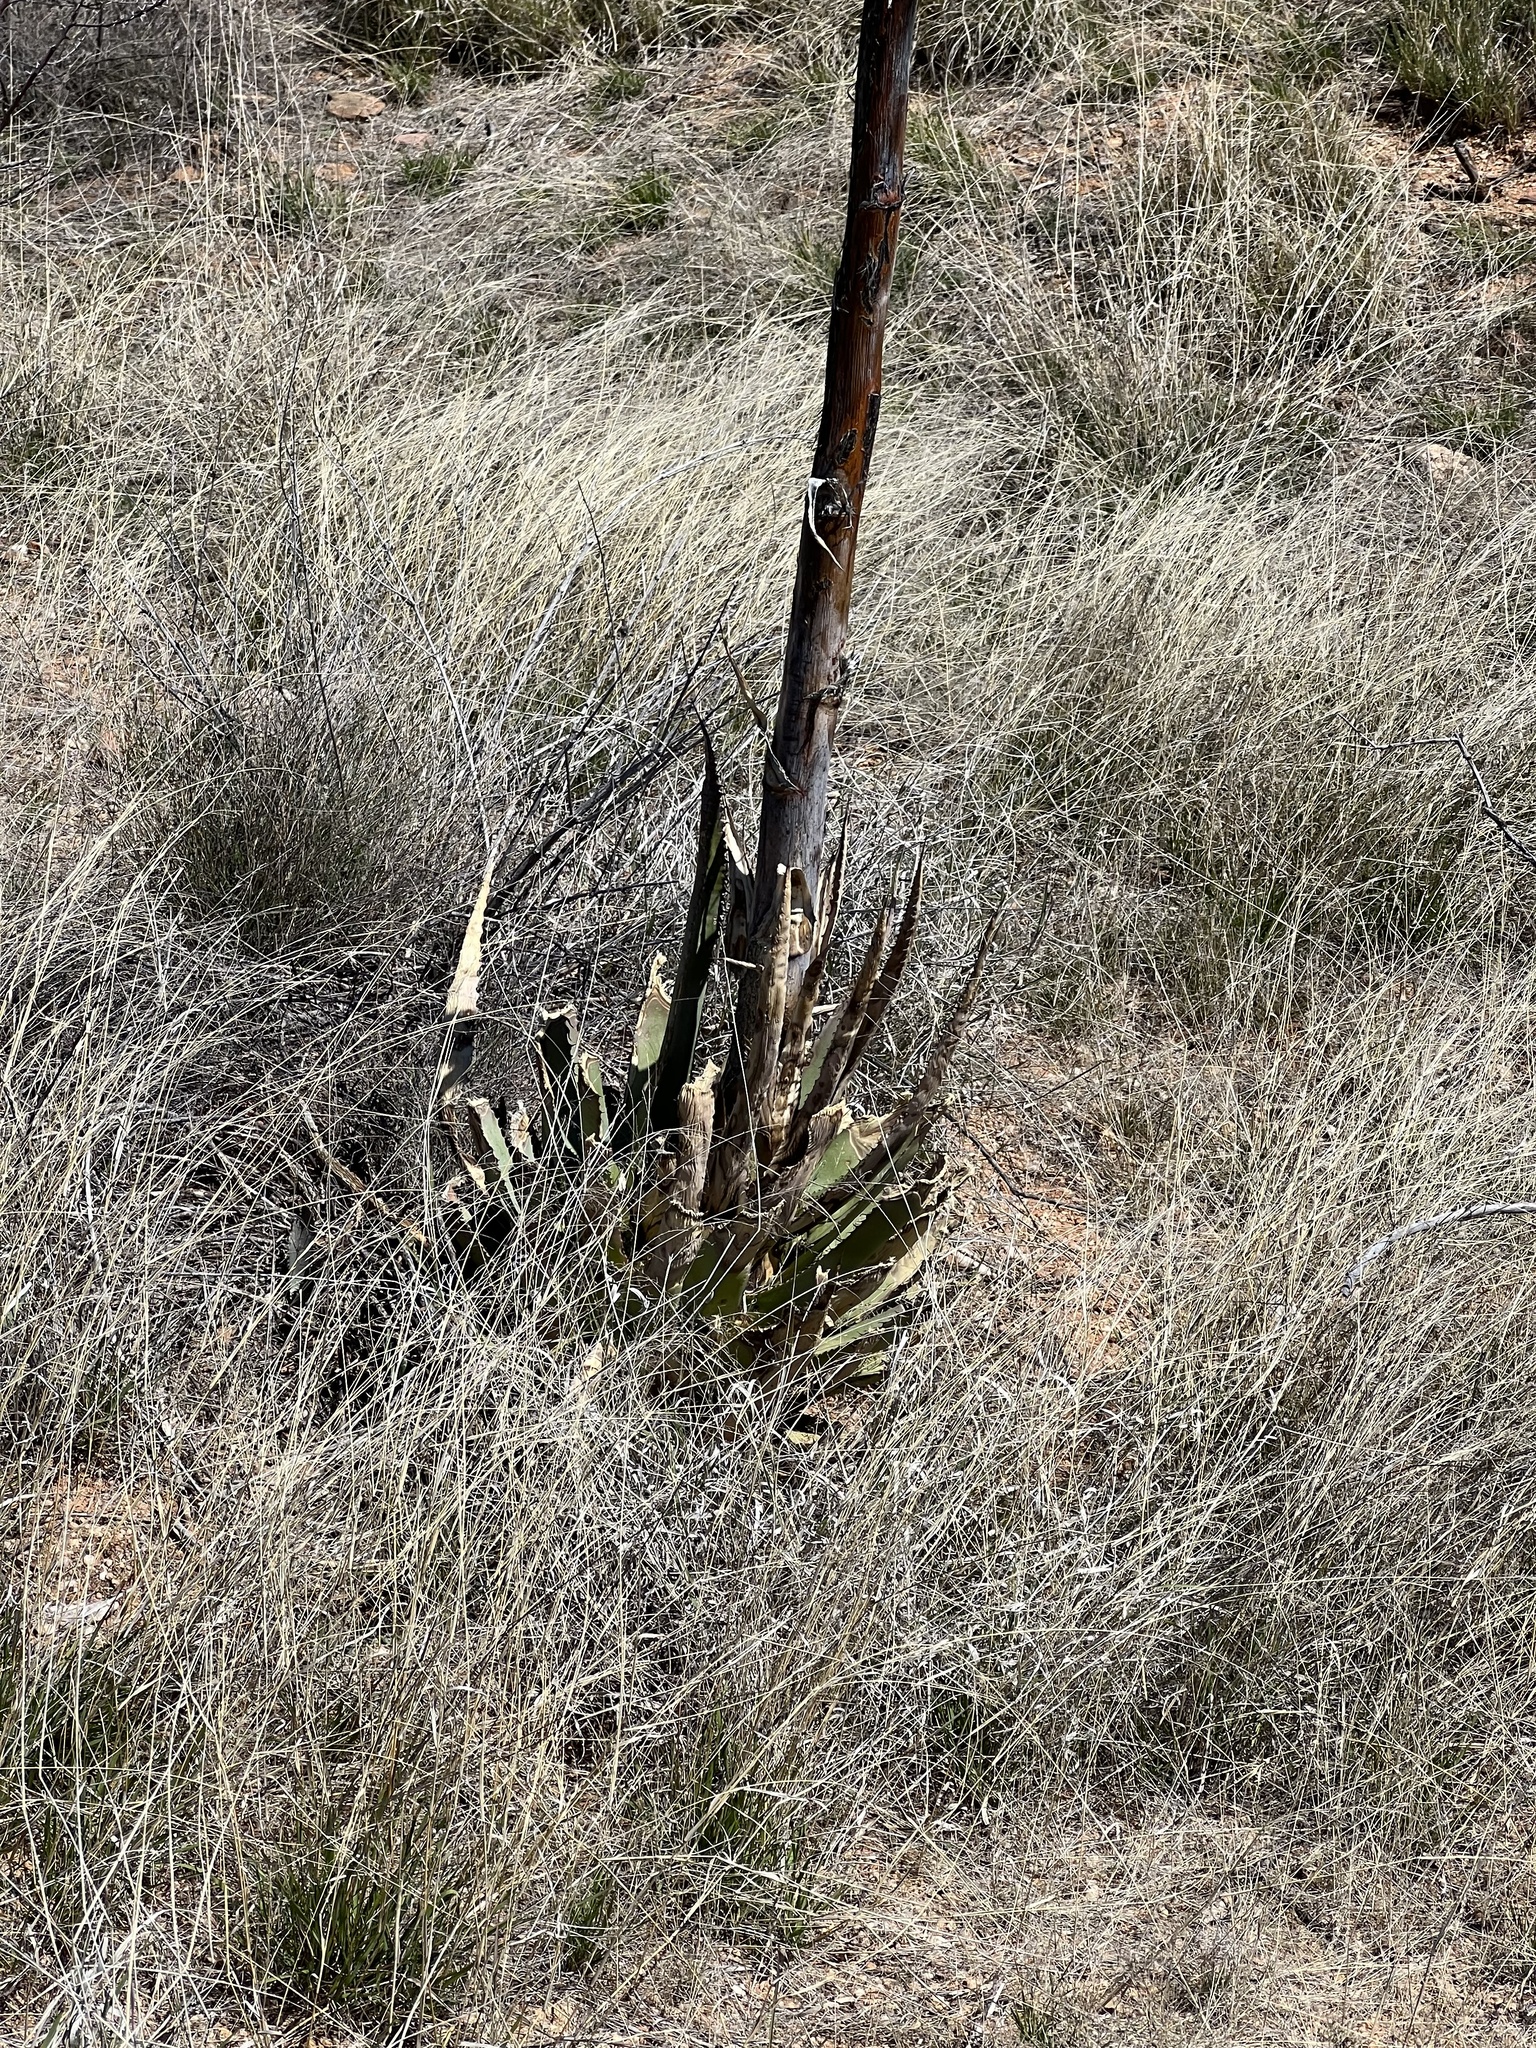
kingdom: Plantae
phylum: Tracheophyta
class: Liliopsida
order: Asparagales
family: Asparagaceae
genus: Agave
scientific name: Agave palmeri
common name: Palmer agave
